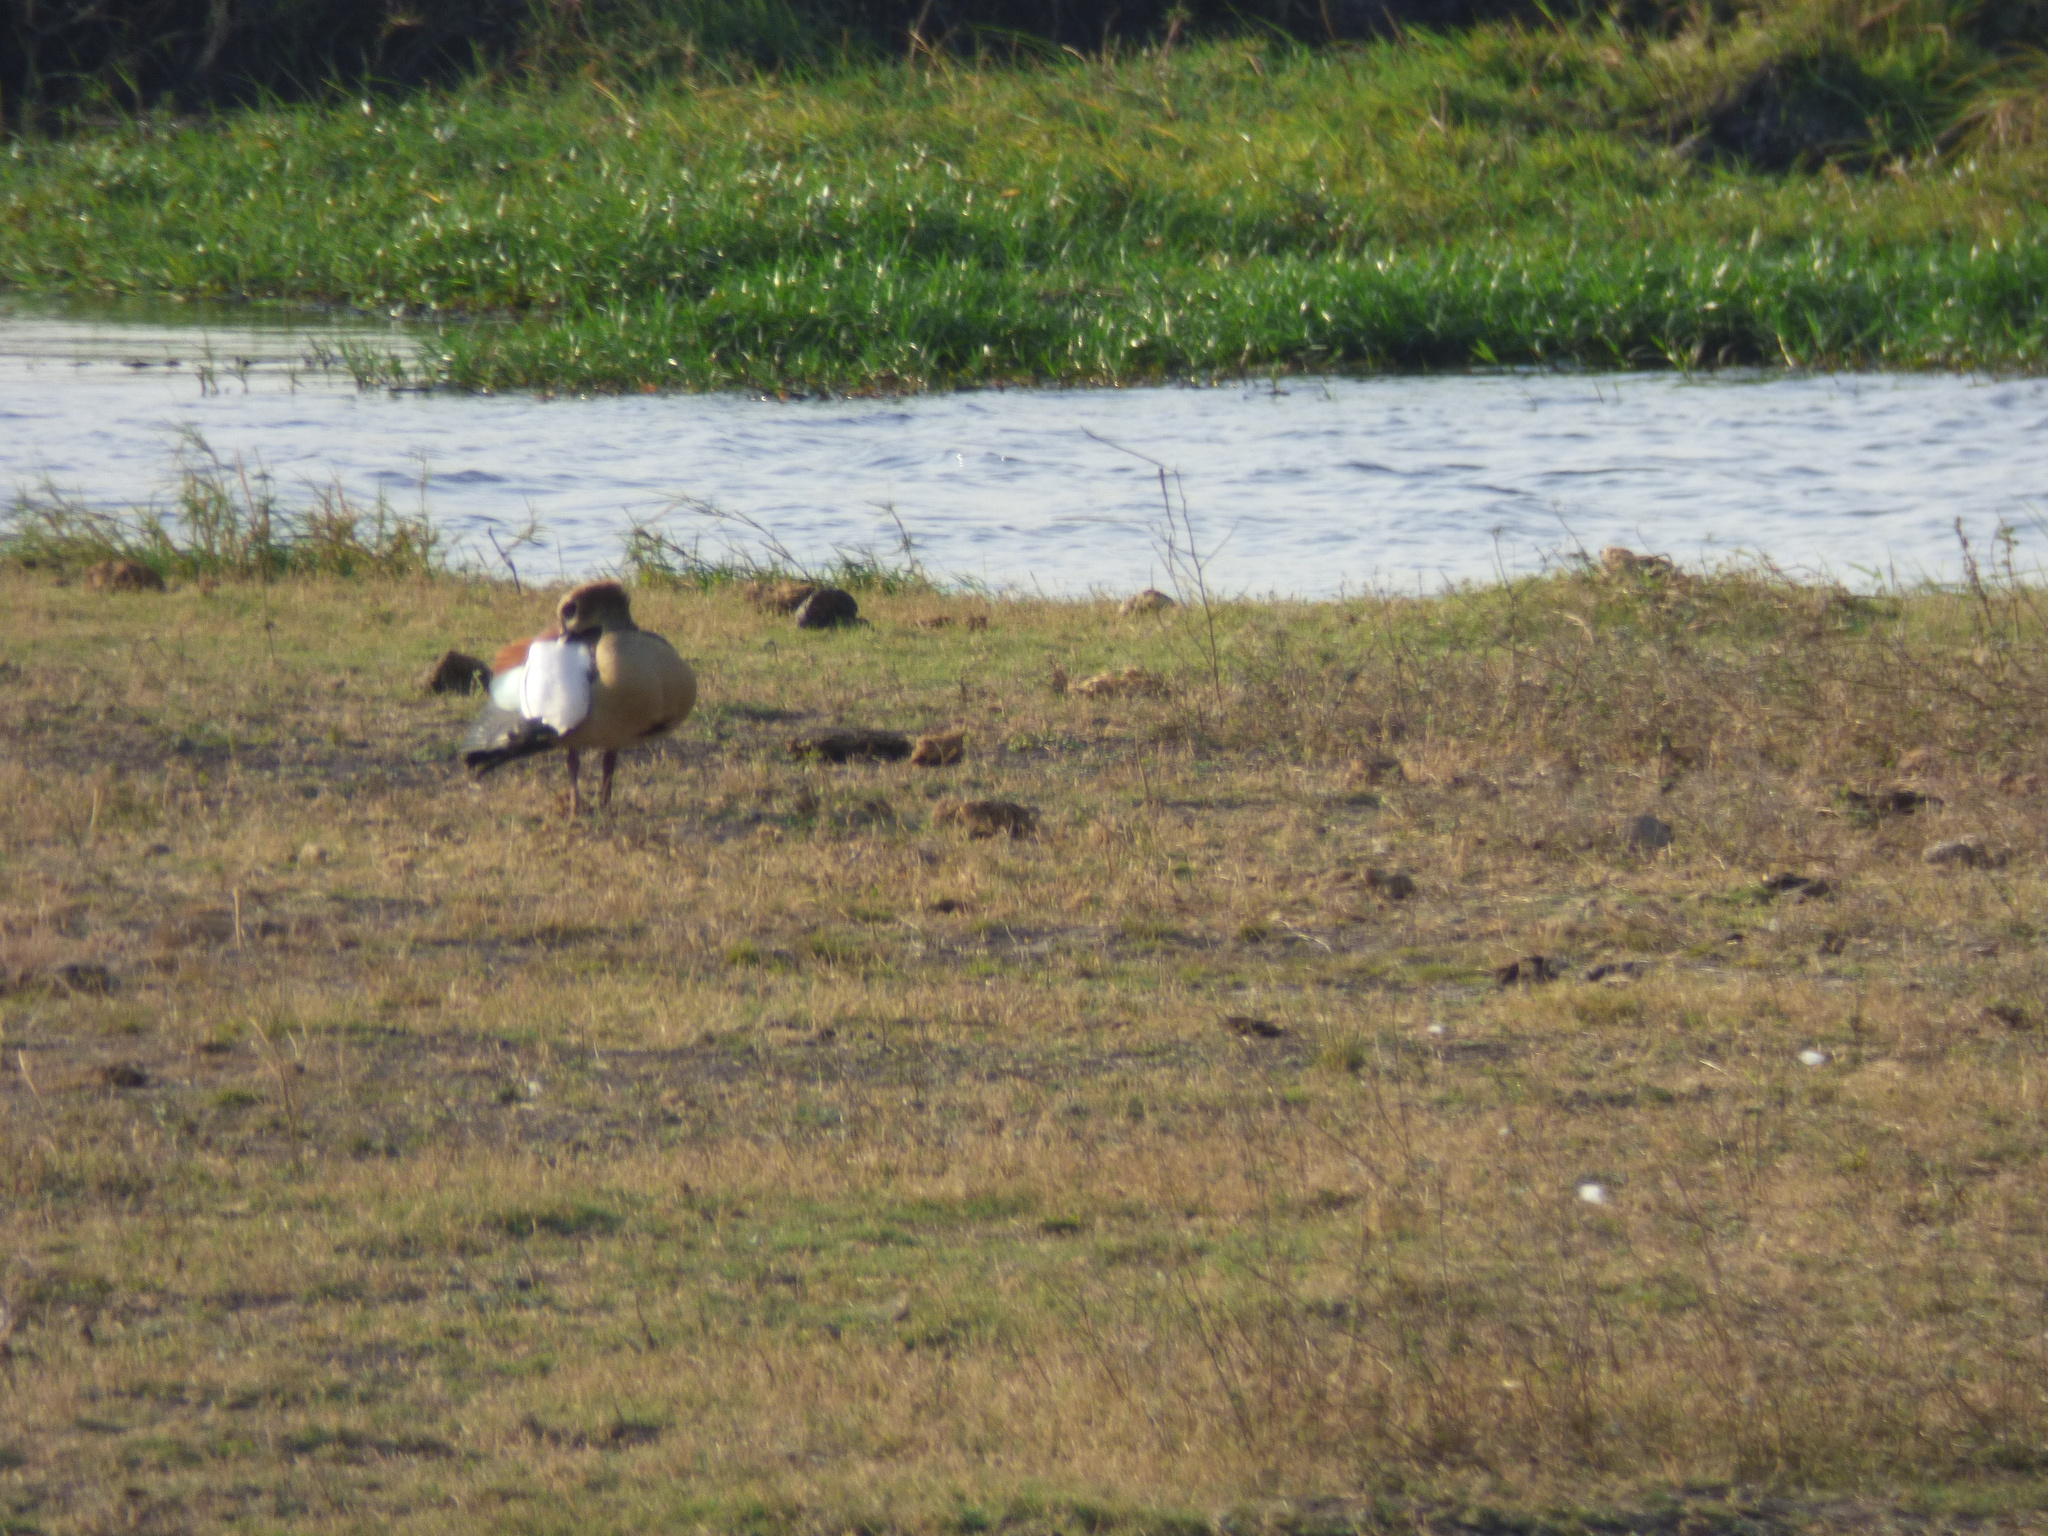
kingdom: Animalia
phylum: Chordata
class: Aves
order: Anseriformes
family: Anatidae
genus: Alopochen
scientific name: Alopochen aegyptiaca
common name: Egyptian goose
